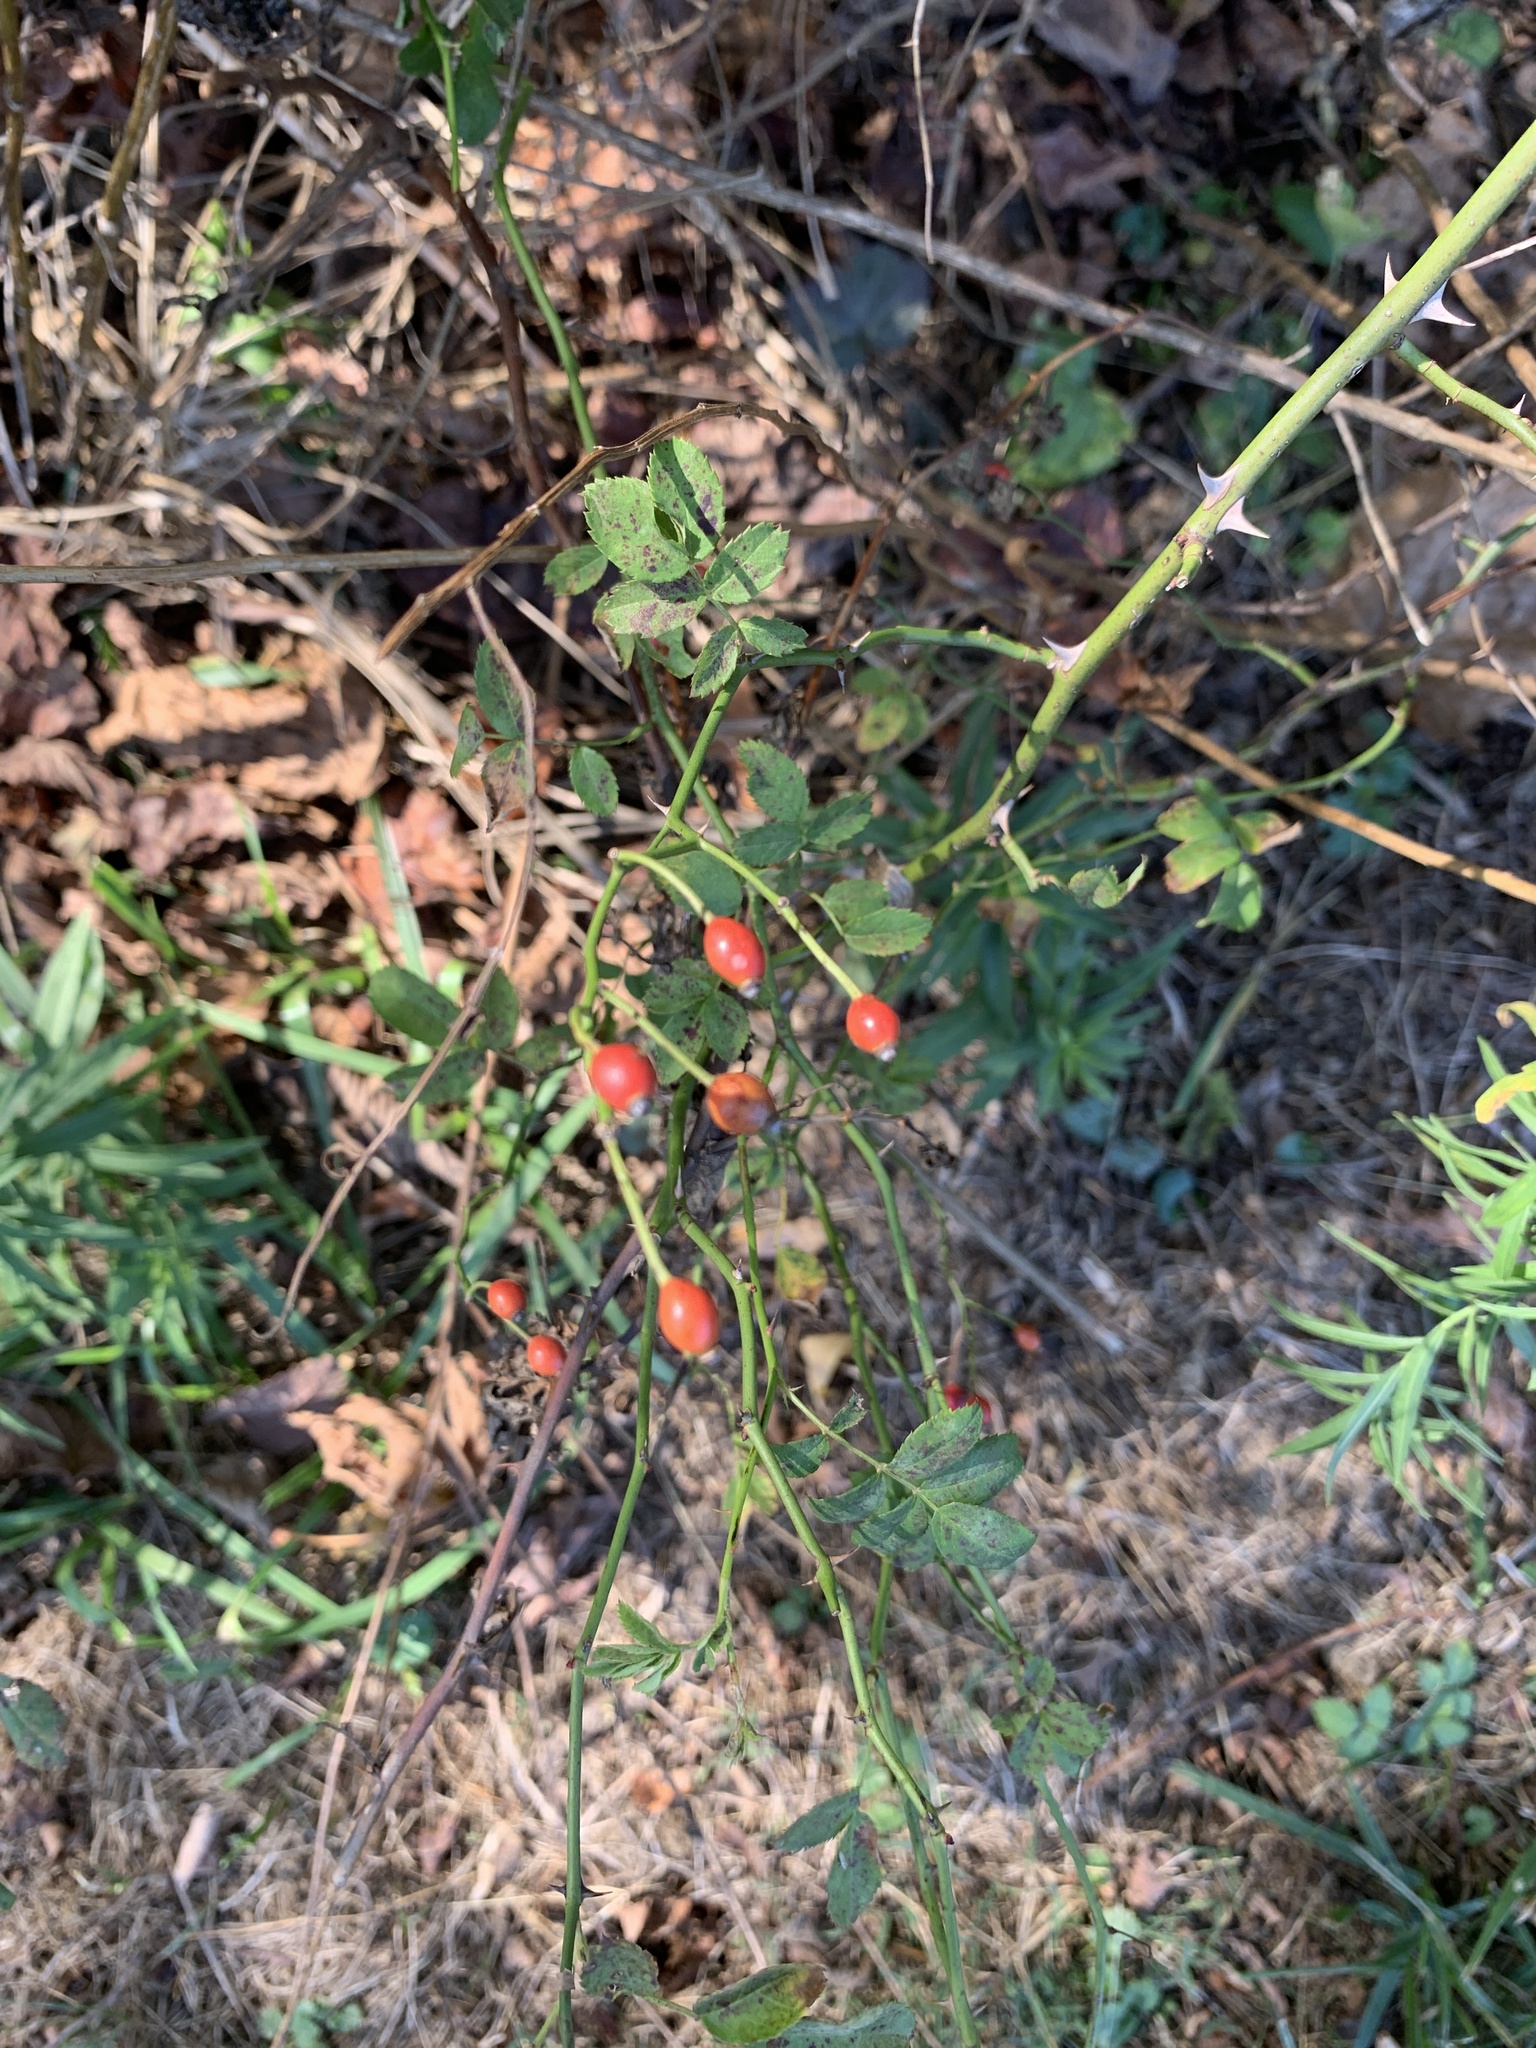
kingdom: Plantae
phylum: Tracheophyta
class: Magnoliopsida
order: Rosales
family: Rosaceae
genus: Rosa
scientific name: Rosa multiflora
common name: Multiflora rose
